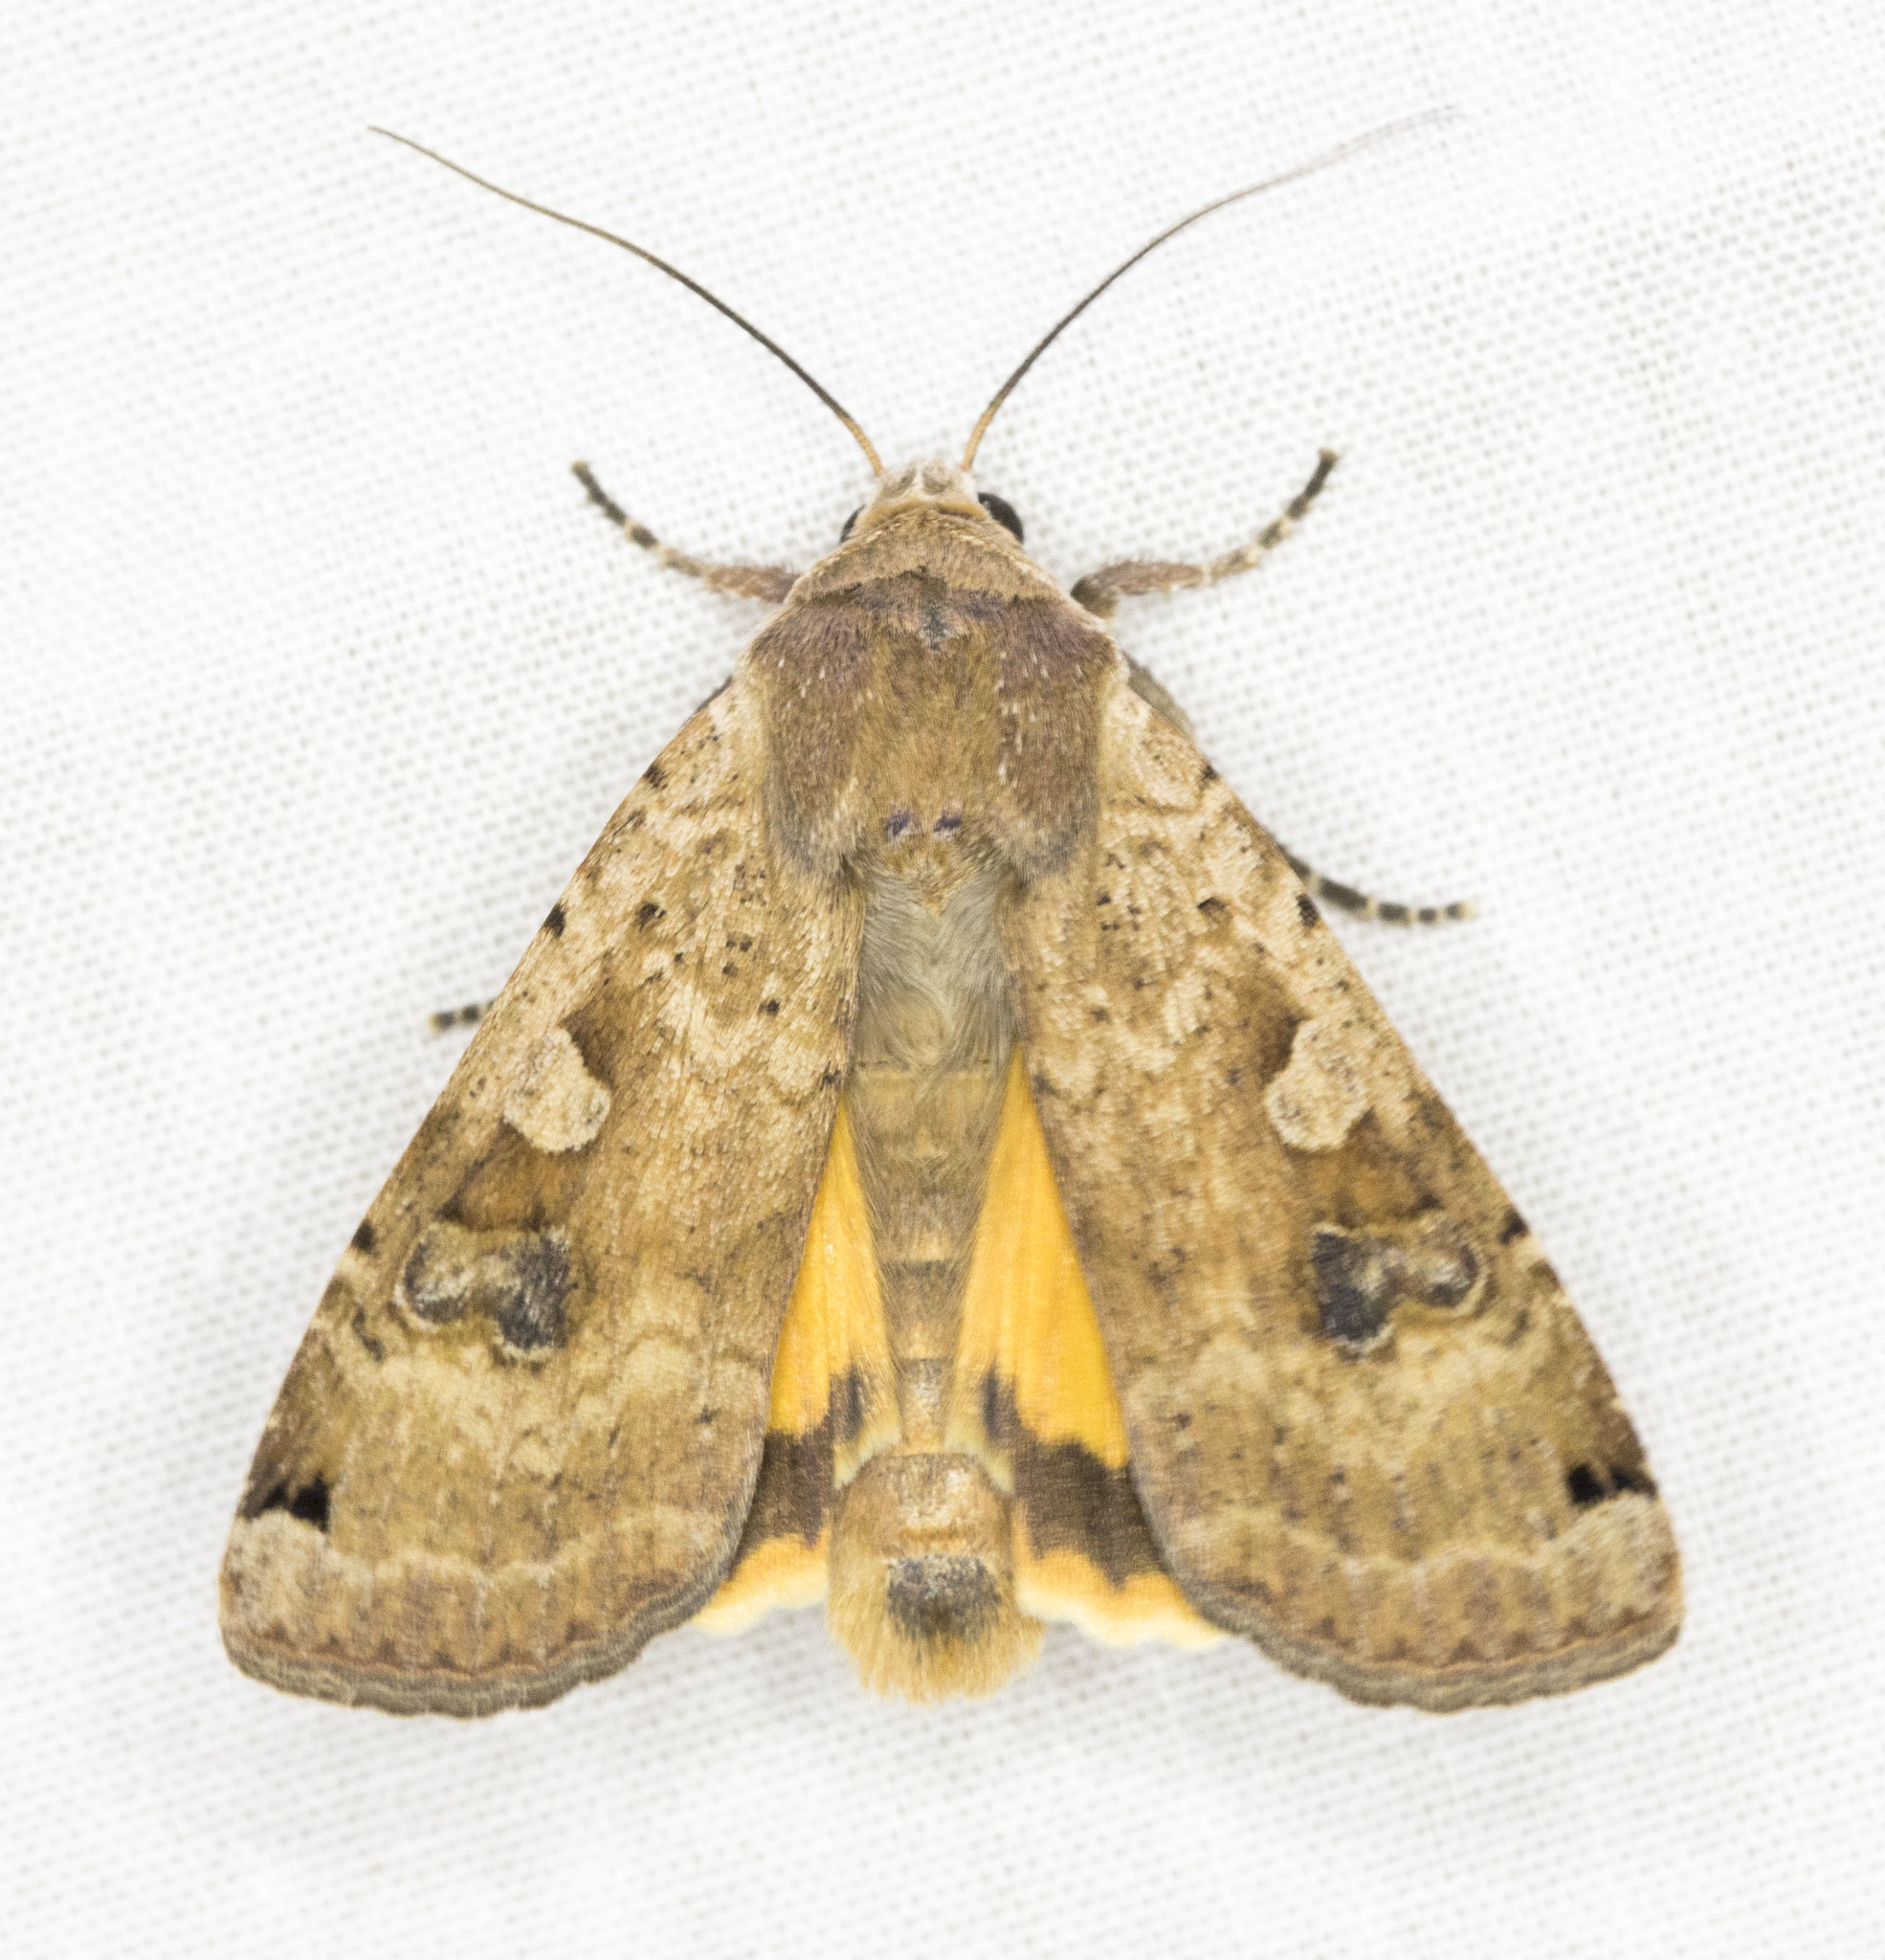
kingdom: Animalia
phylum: Arthropoda
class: Insecta
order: Lepidoptera
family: Noctuidae
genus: Noctua
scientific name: Noctua pronuba
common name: Large yellow underwing
